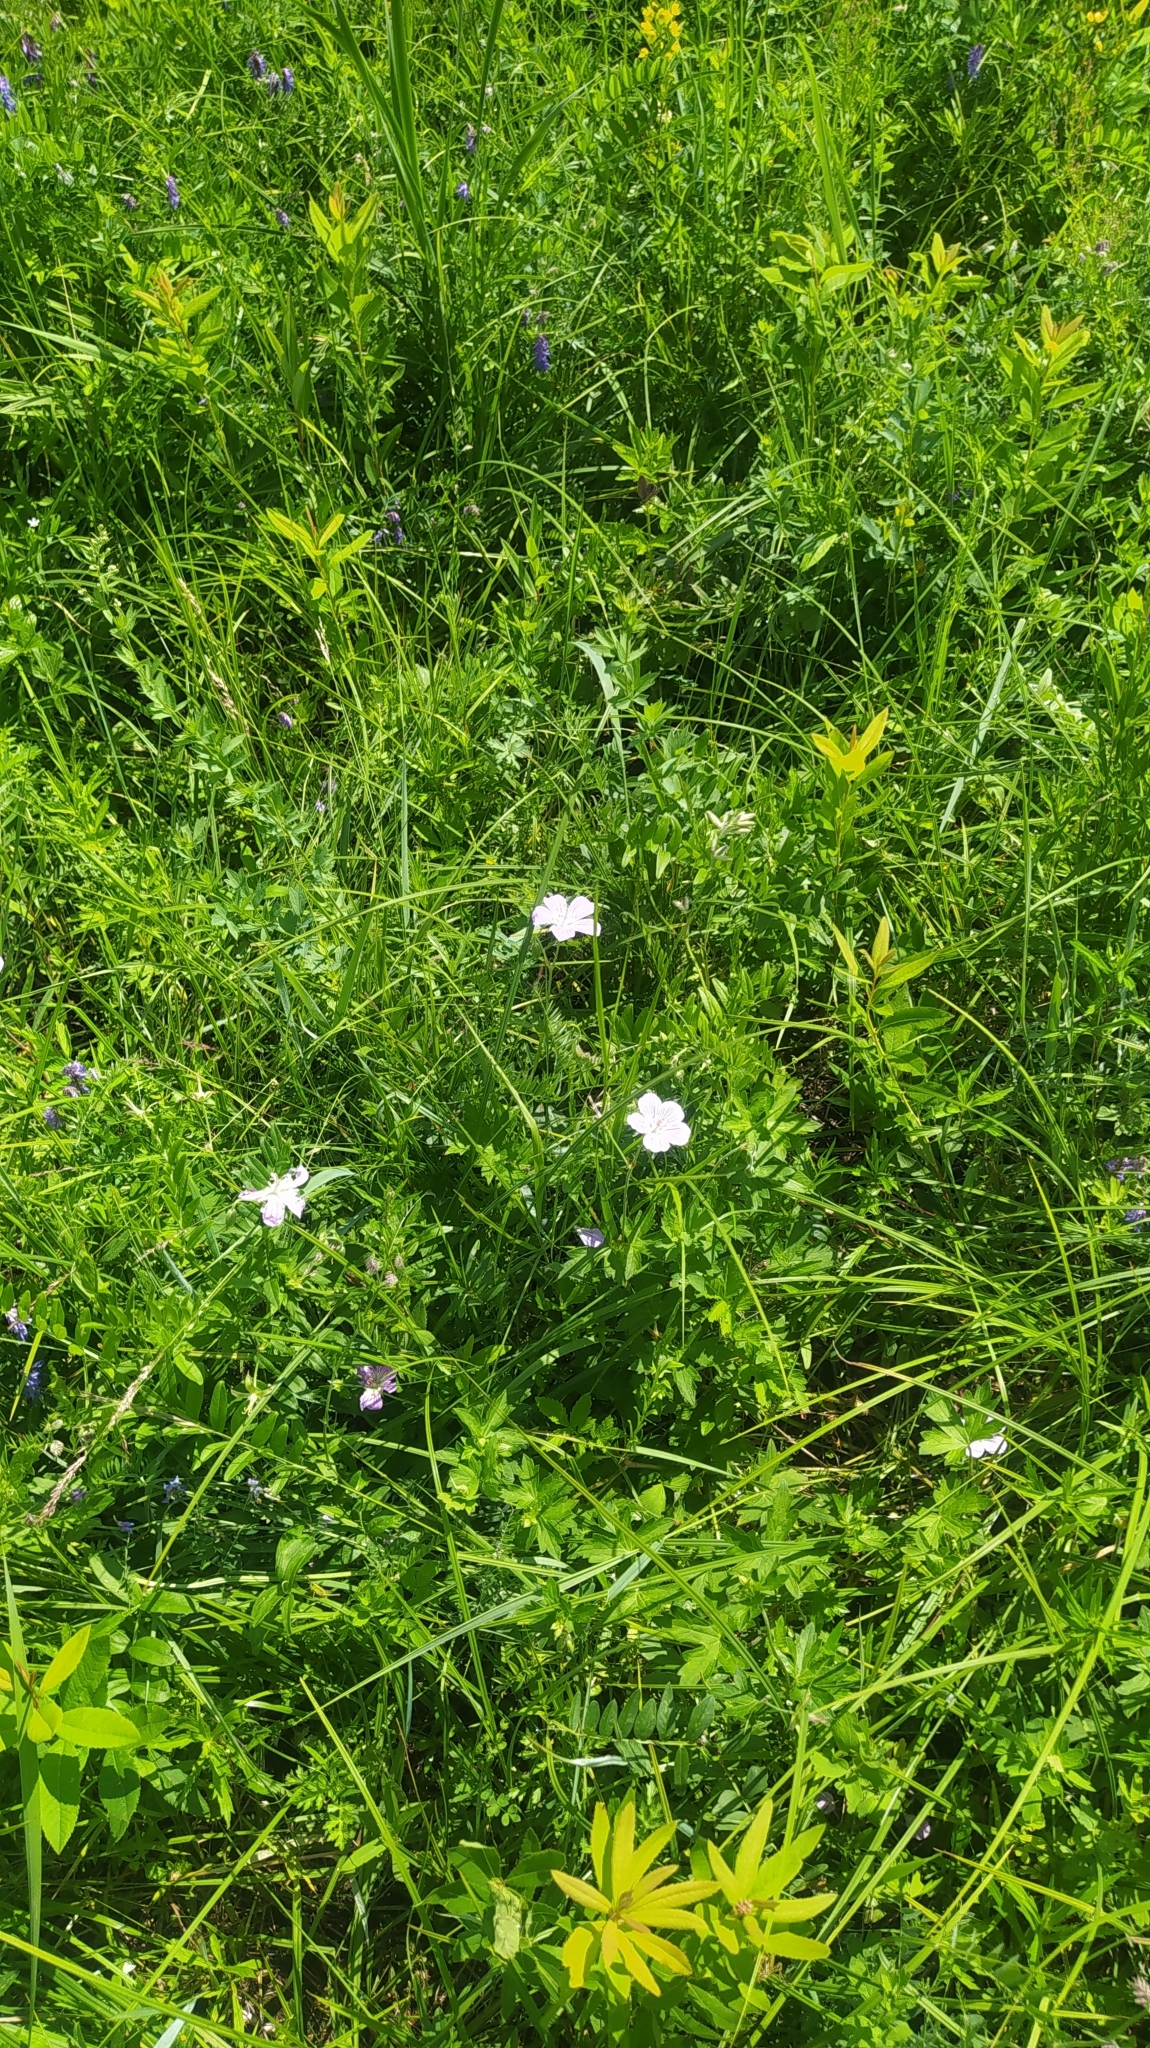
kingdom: Plantae
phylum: Tracheophyta
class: Magnoliopsida
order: Geraniales
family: Geraniaceae
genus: Geranium
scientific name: Geranium wlassovianum
